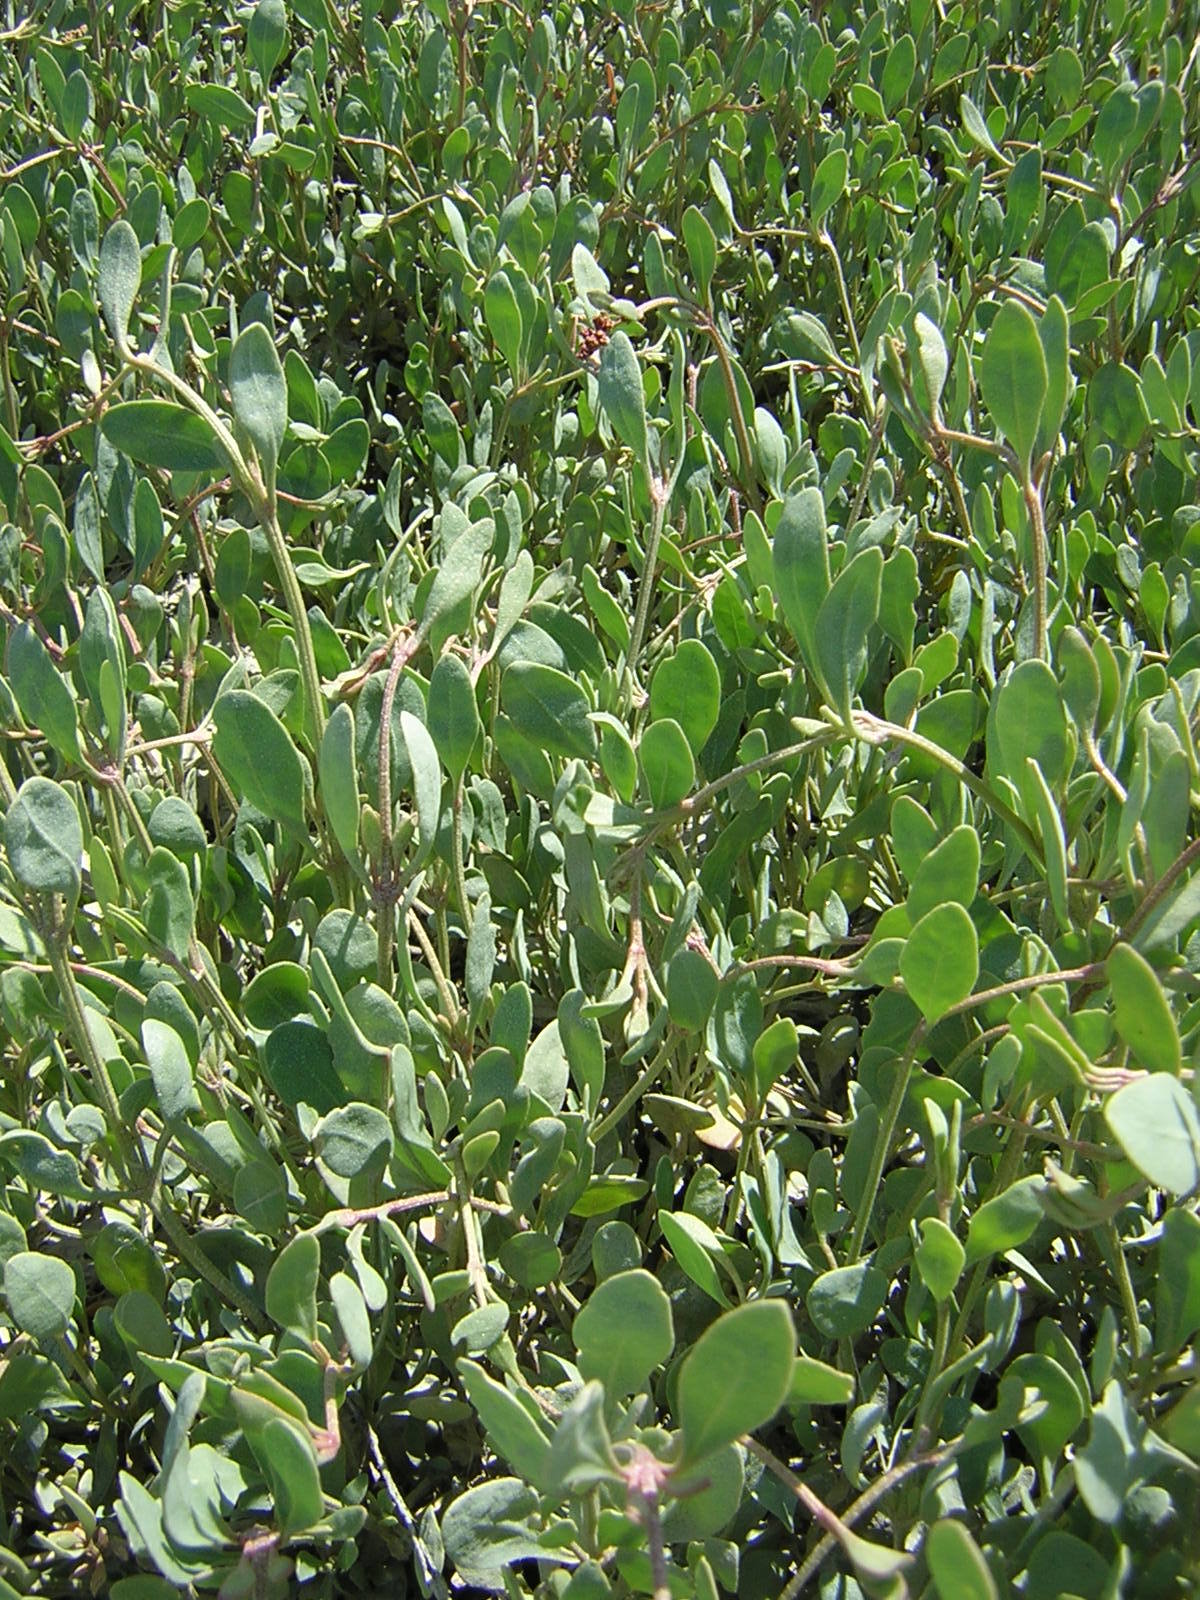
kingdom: Plantae
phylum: Tracheophyta
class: Magnoliopsida
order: Caryophyllales
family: Amaranthaceae
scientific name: Amaranthaceae
